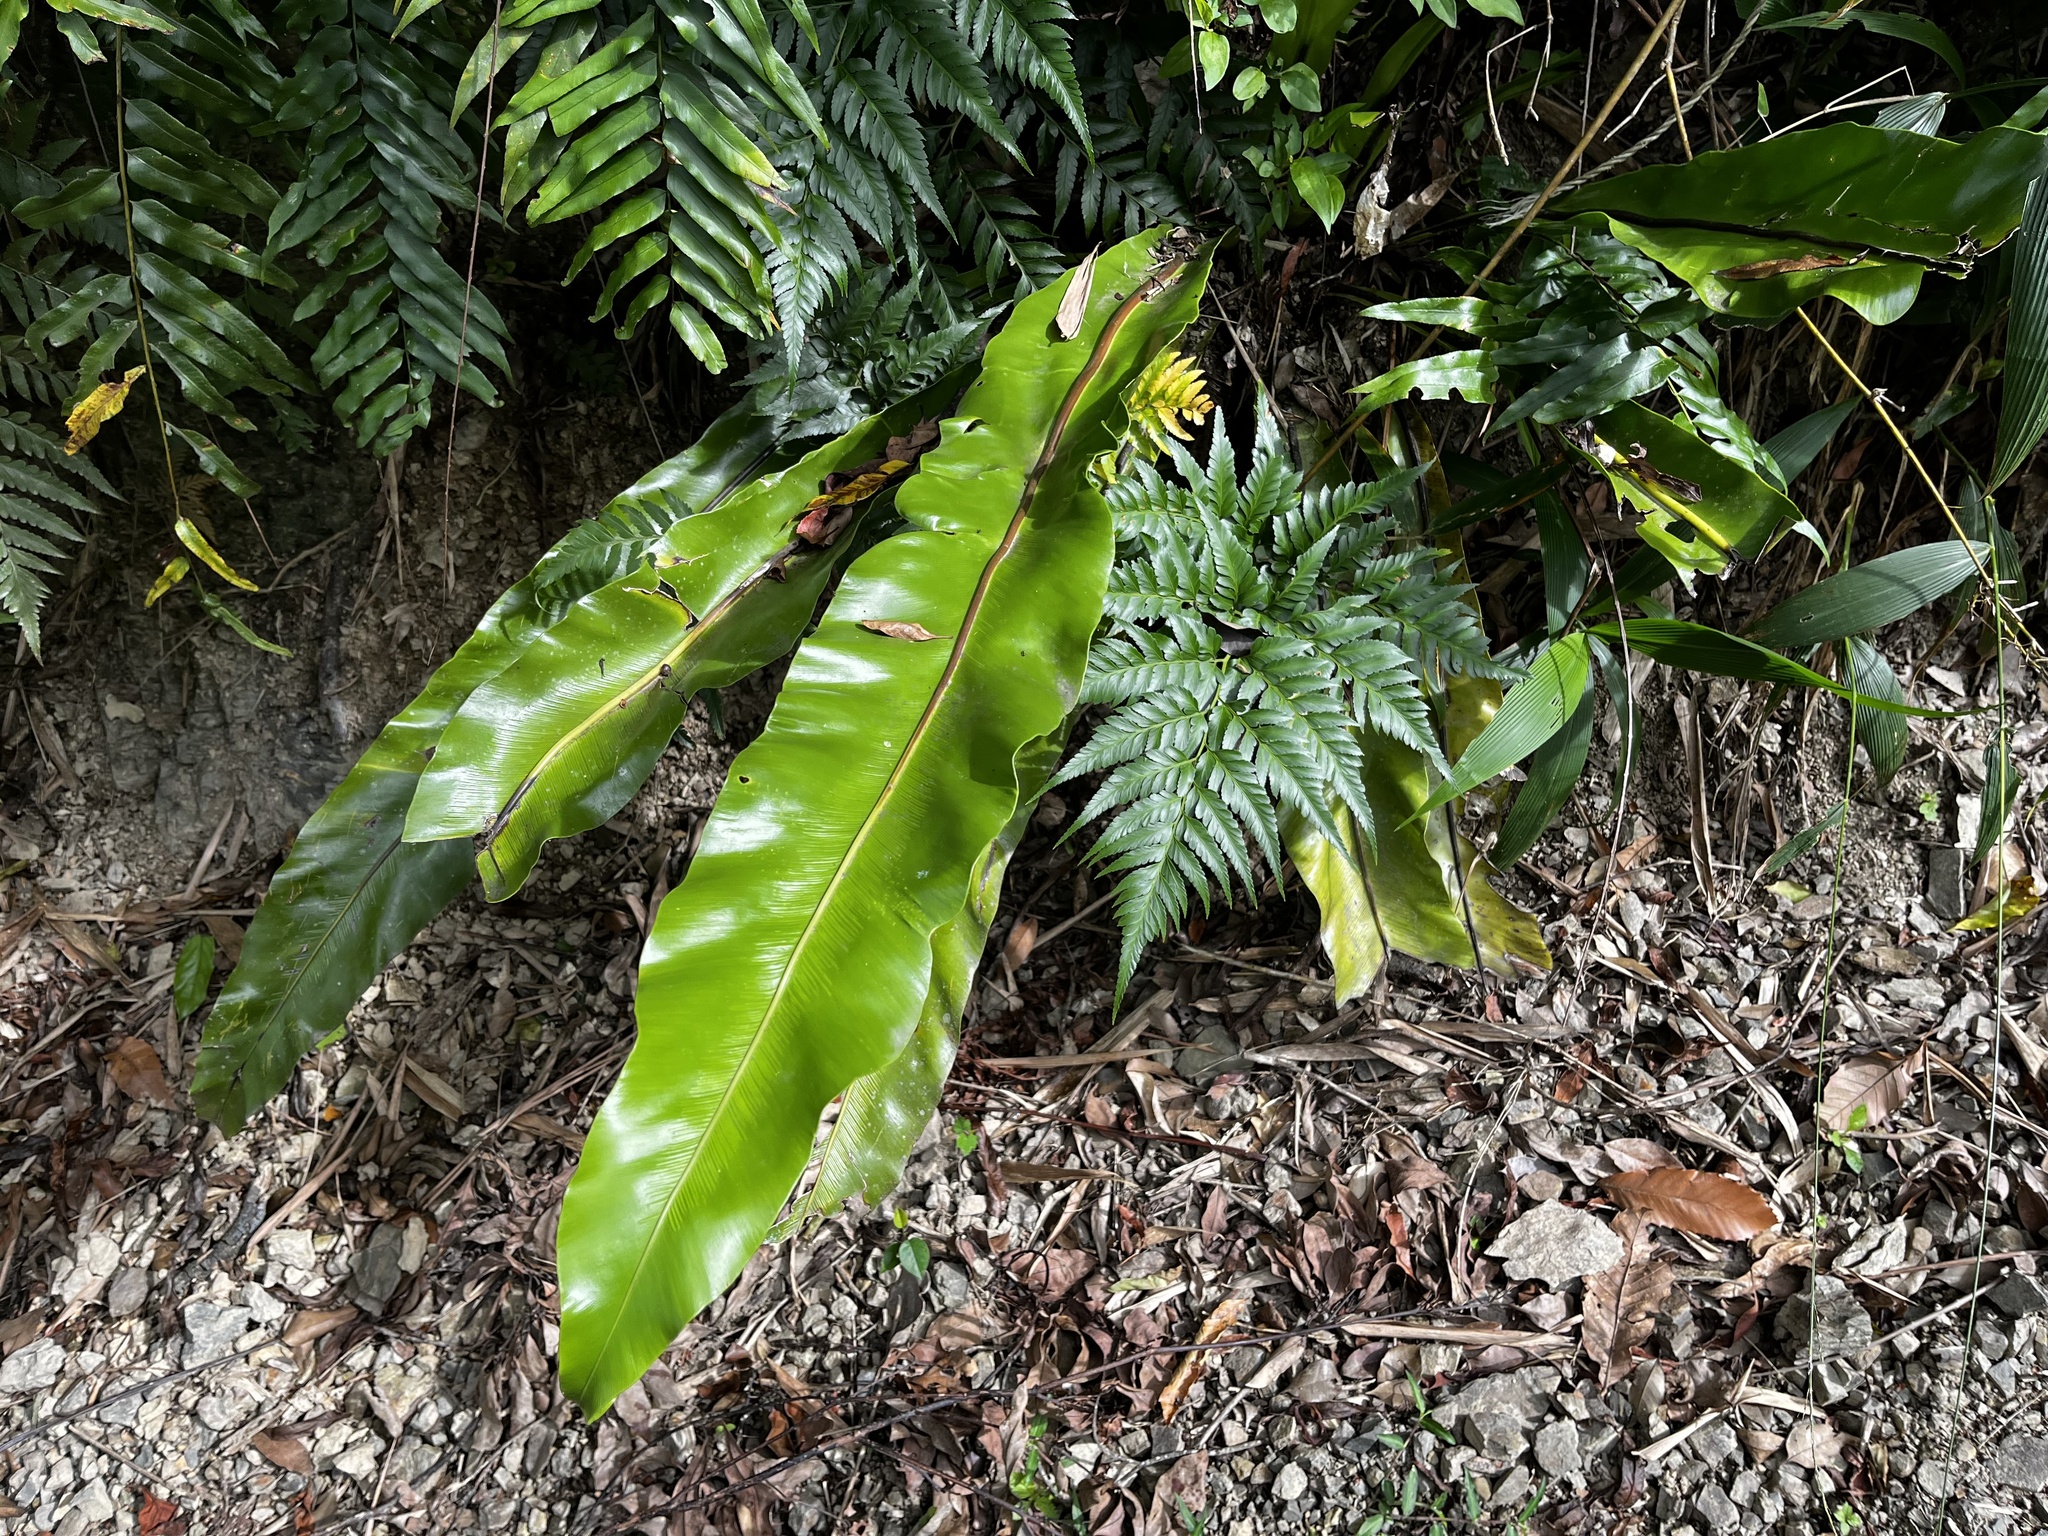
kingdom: Plantae
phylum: Tracheophyta
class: Polypodiopsida
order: Polypodiales
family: Aspleniaceae
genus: Asplenium
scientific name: Asplenium setoi
